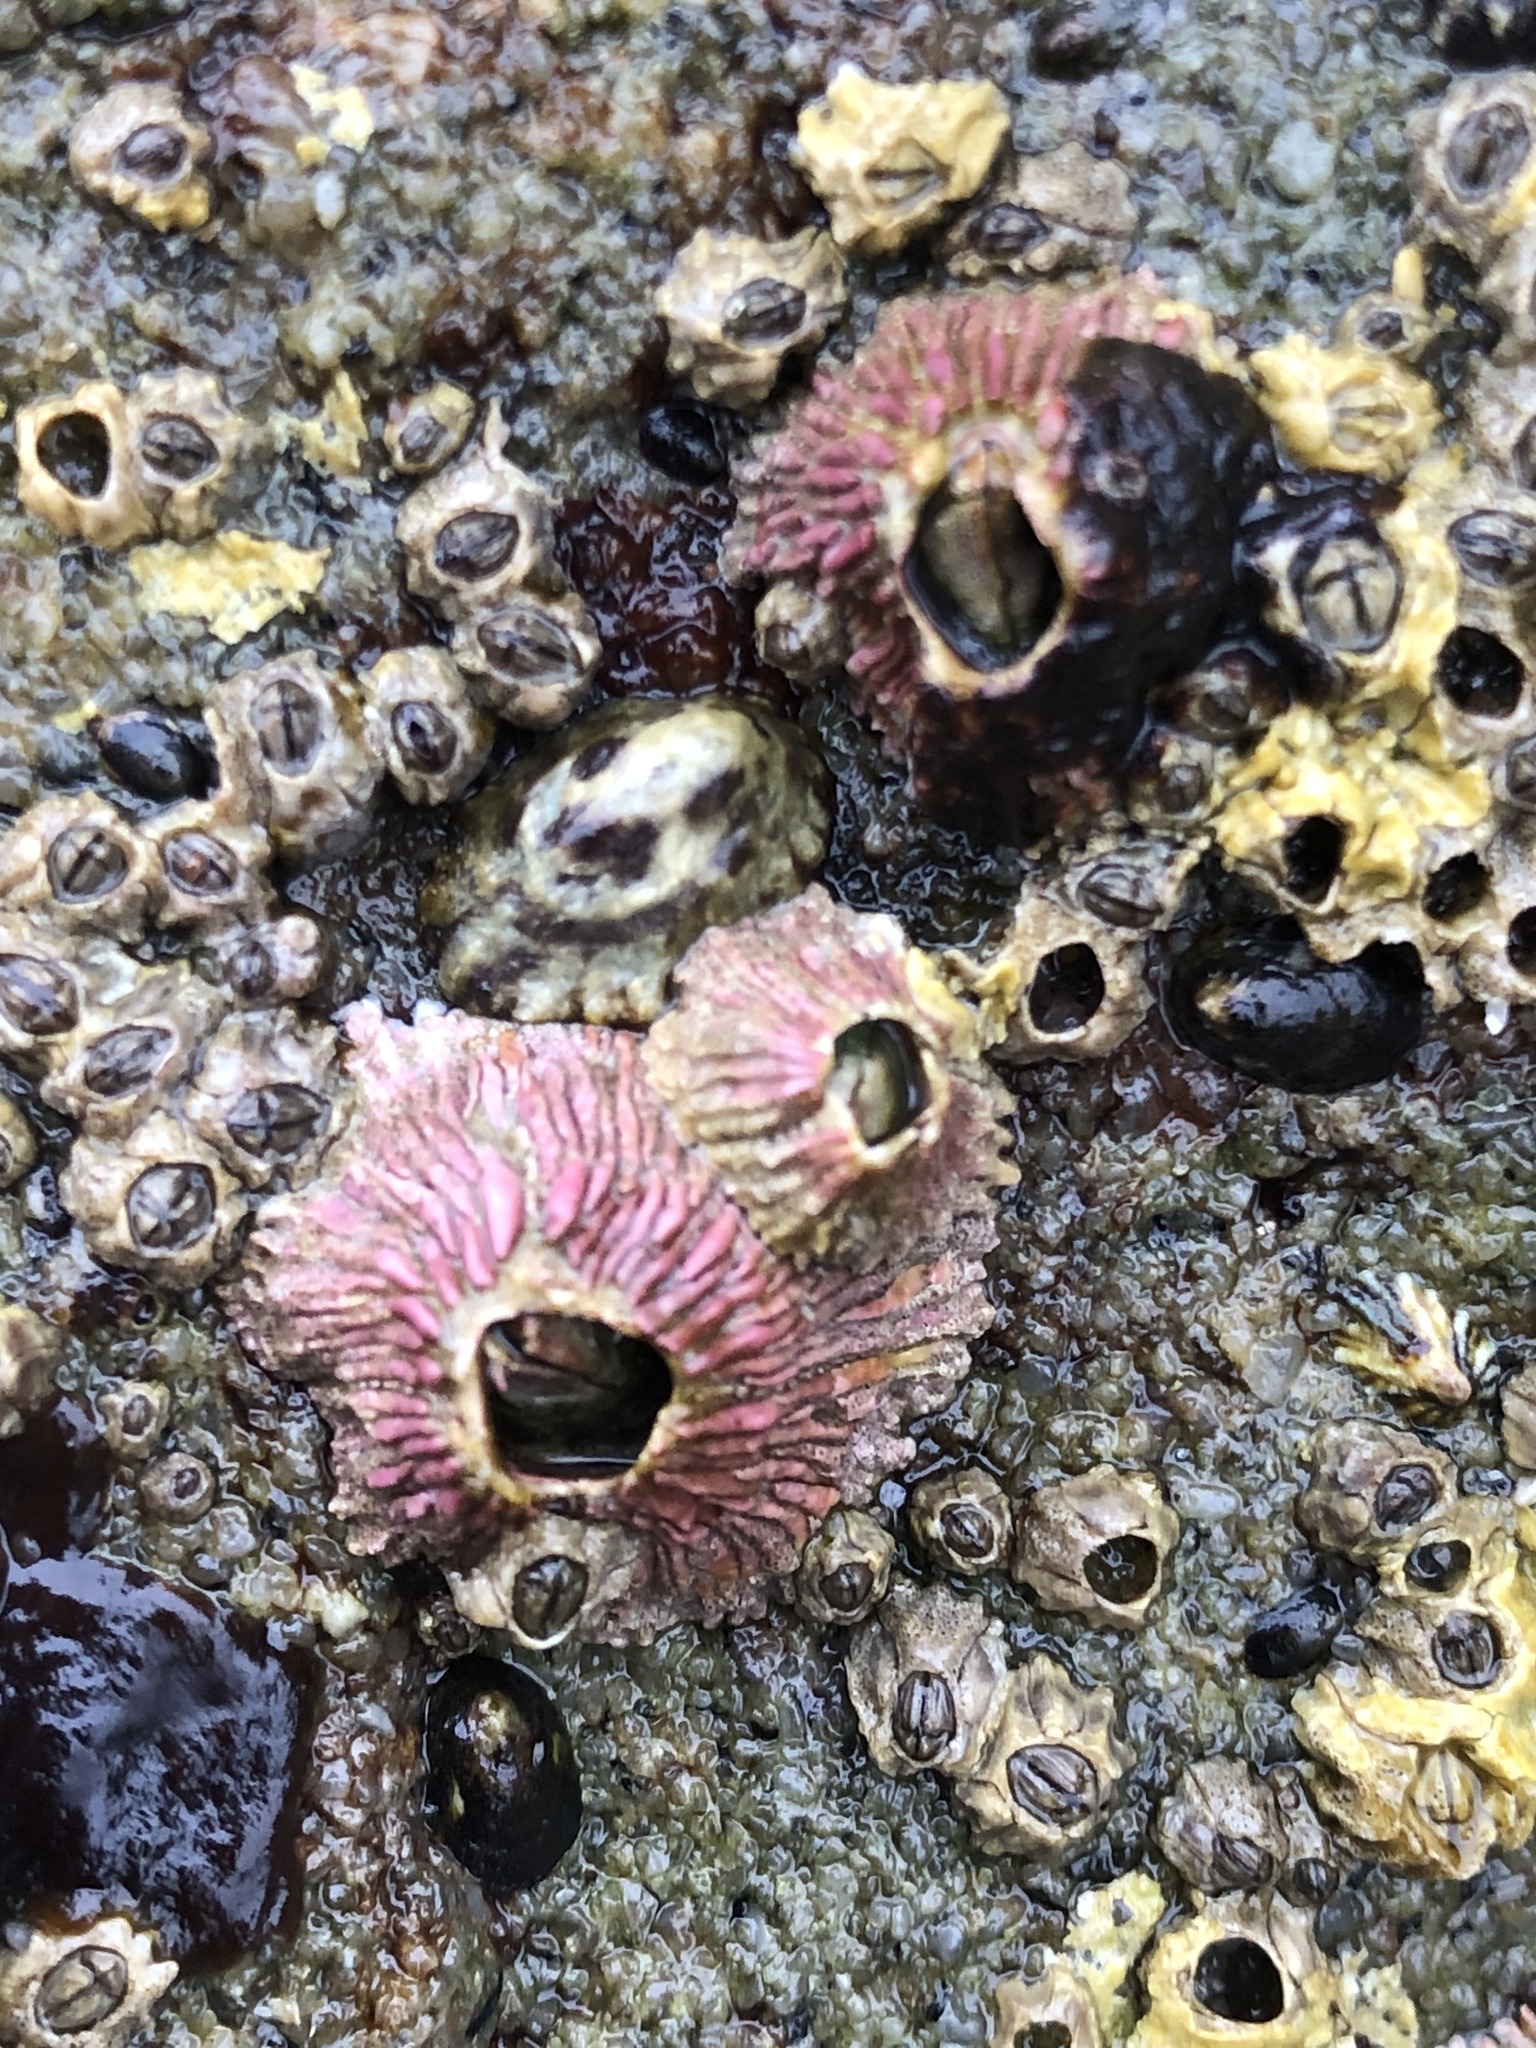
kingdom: Animalia
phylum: Arthropoda
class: Maxillopoda
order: Sessilia
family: Tetraclitidae
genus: Tetraclita
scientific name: Tetraclita rubescens
